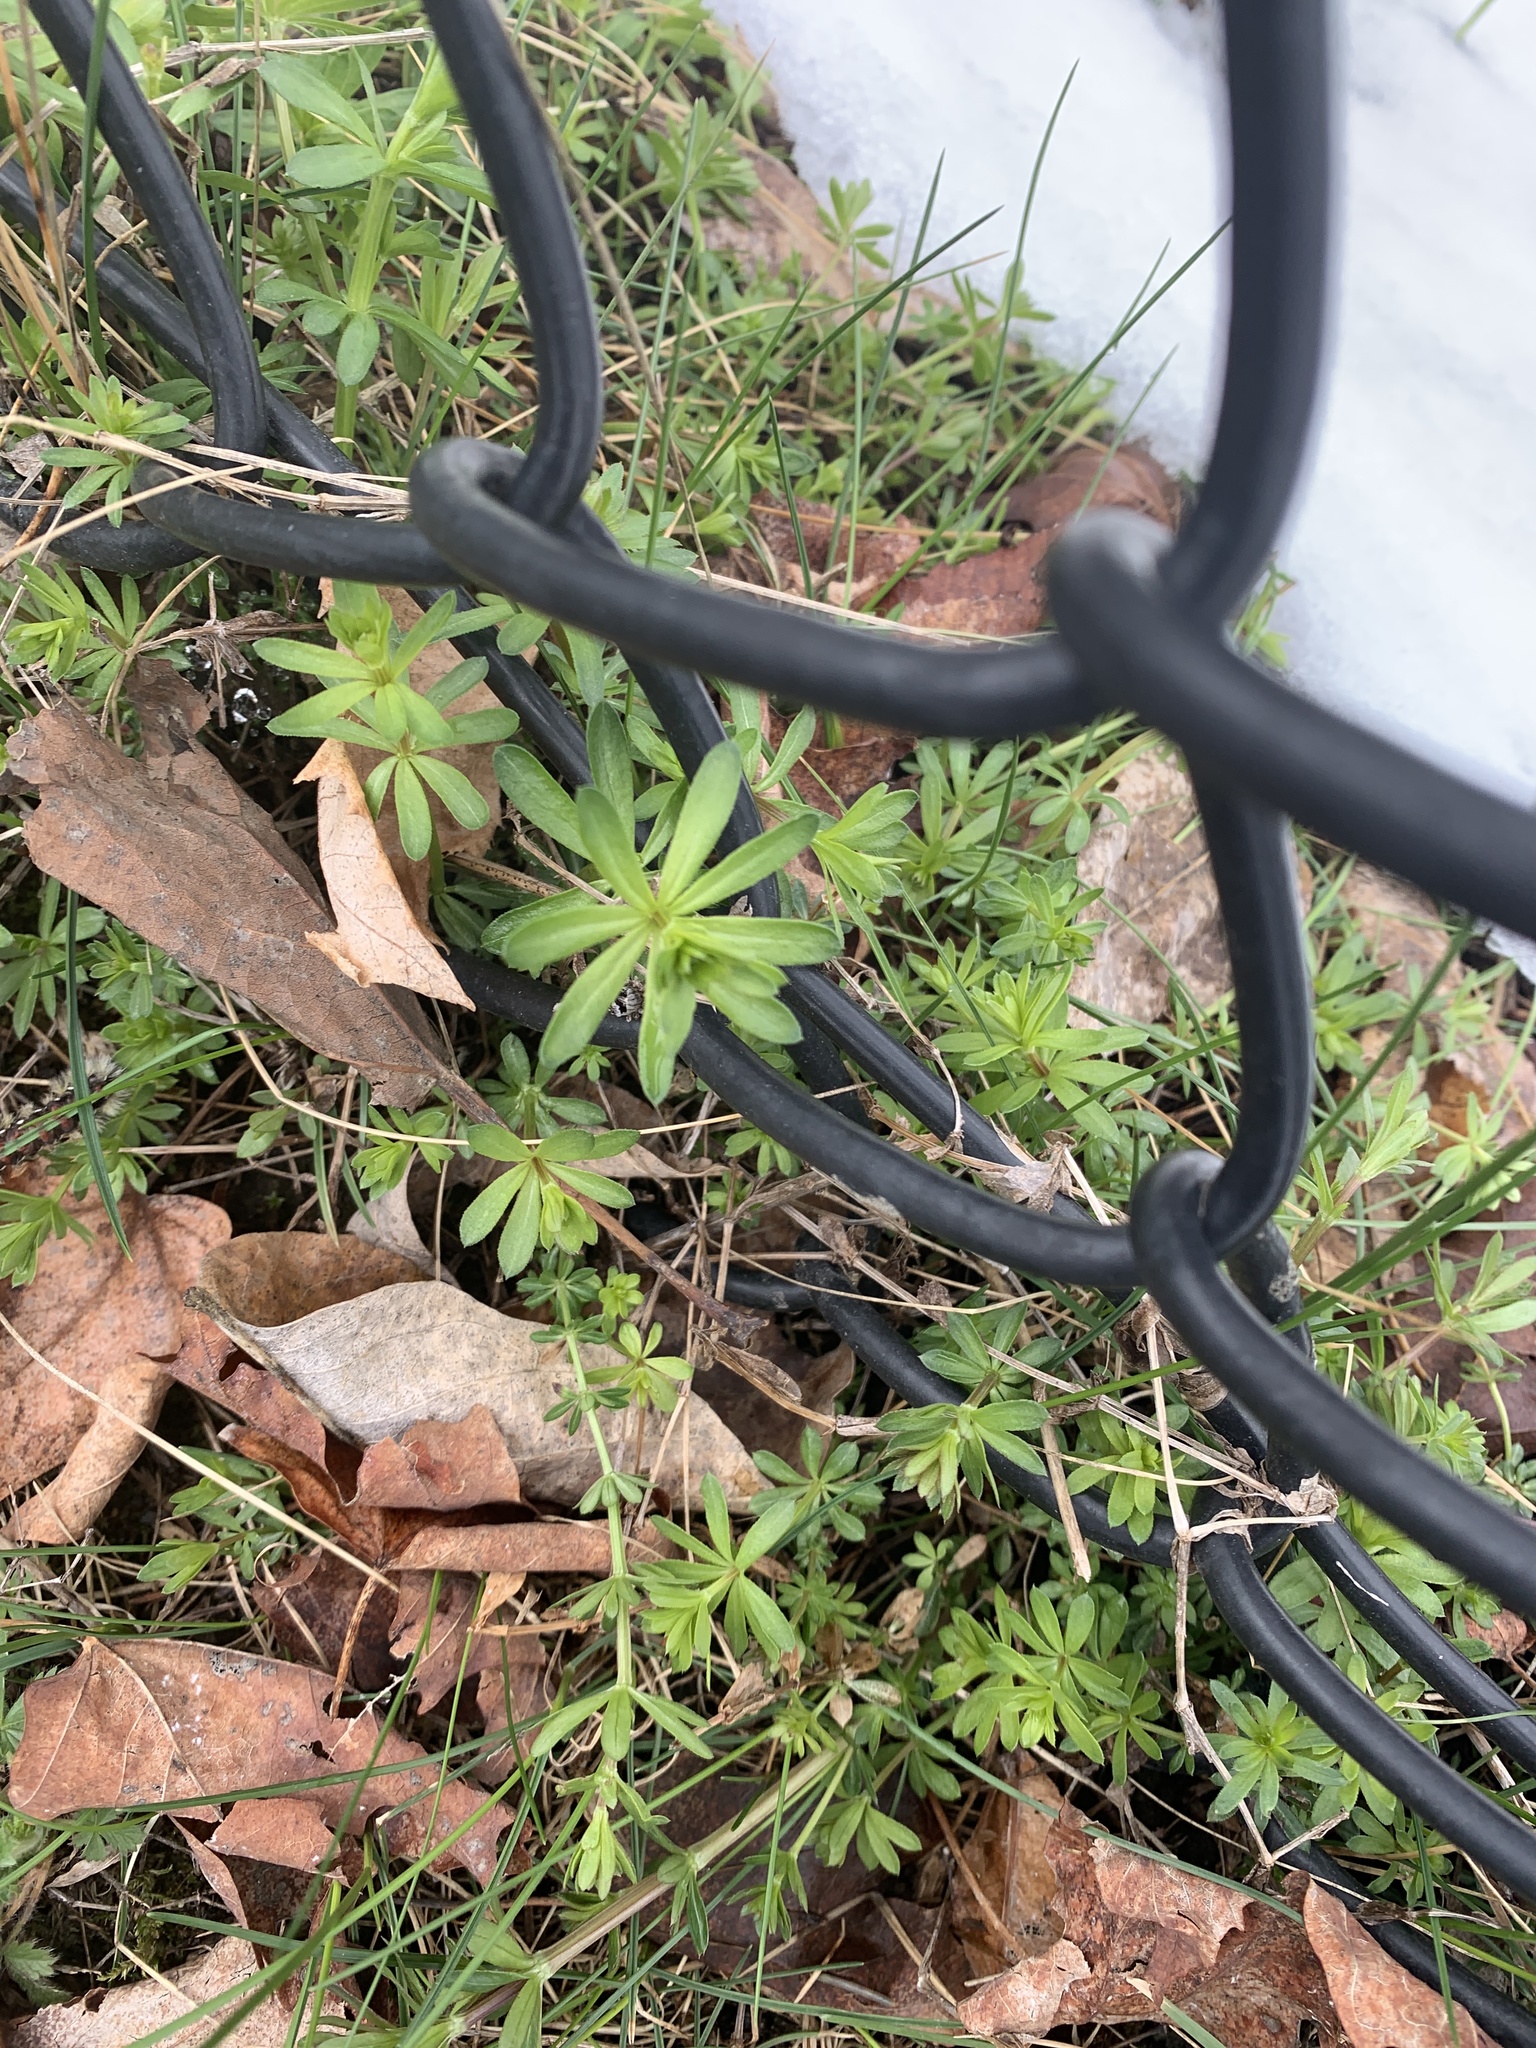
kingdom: Plantae
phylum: Tracheophyta
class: Magnoliopsida
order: Gentianales
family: Rubiaceae
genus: Galium
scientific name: Galium mollugo
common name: Hedge bedstraw
